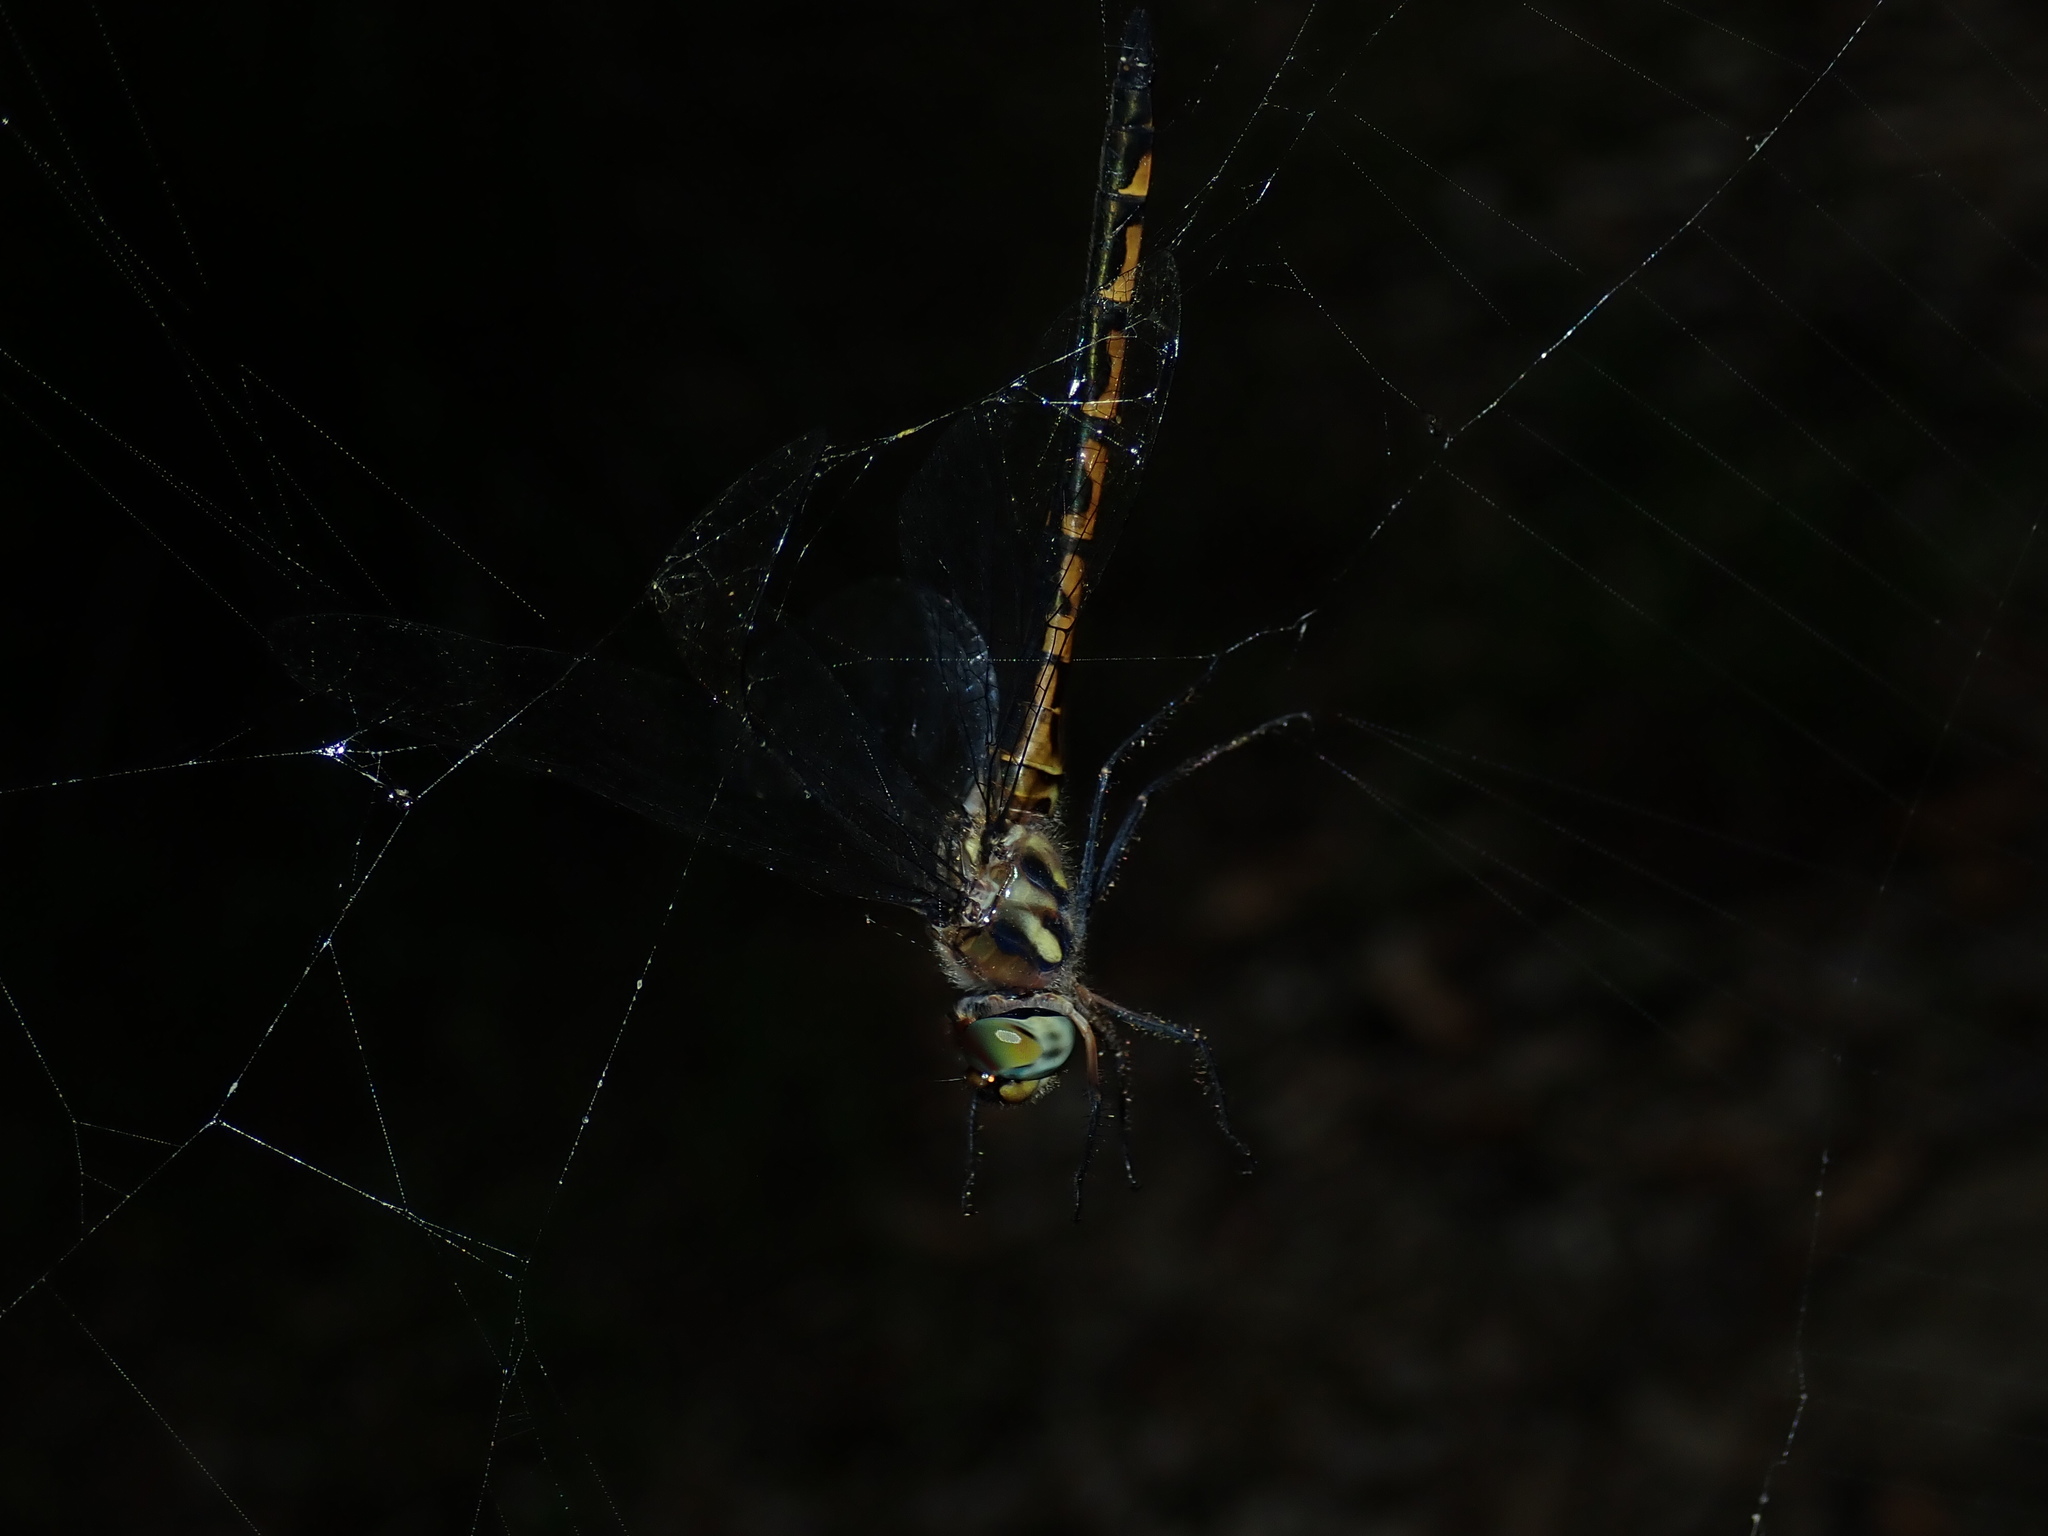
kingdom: Animalia
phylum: Arthropoda
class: Insecta
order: Odonata
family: Corduliidae
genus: Hemicordulia
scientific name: Hemicordulia australiae
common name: Sentry dragonfly
